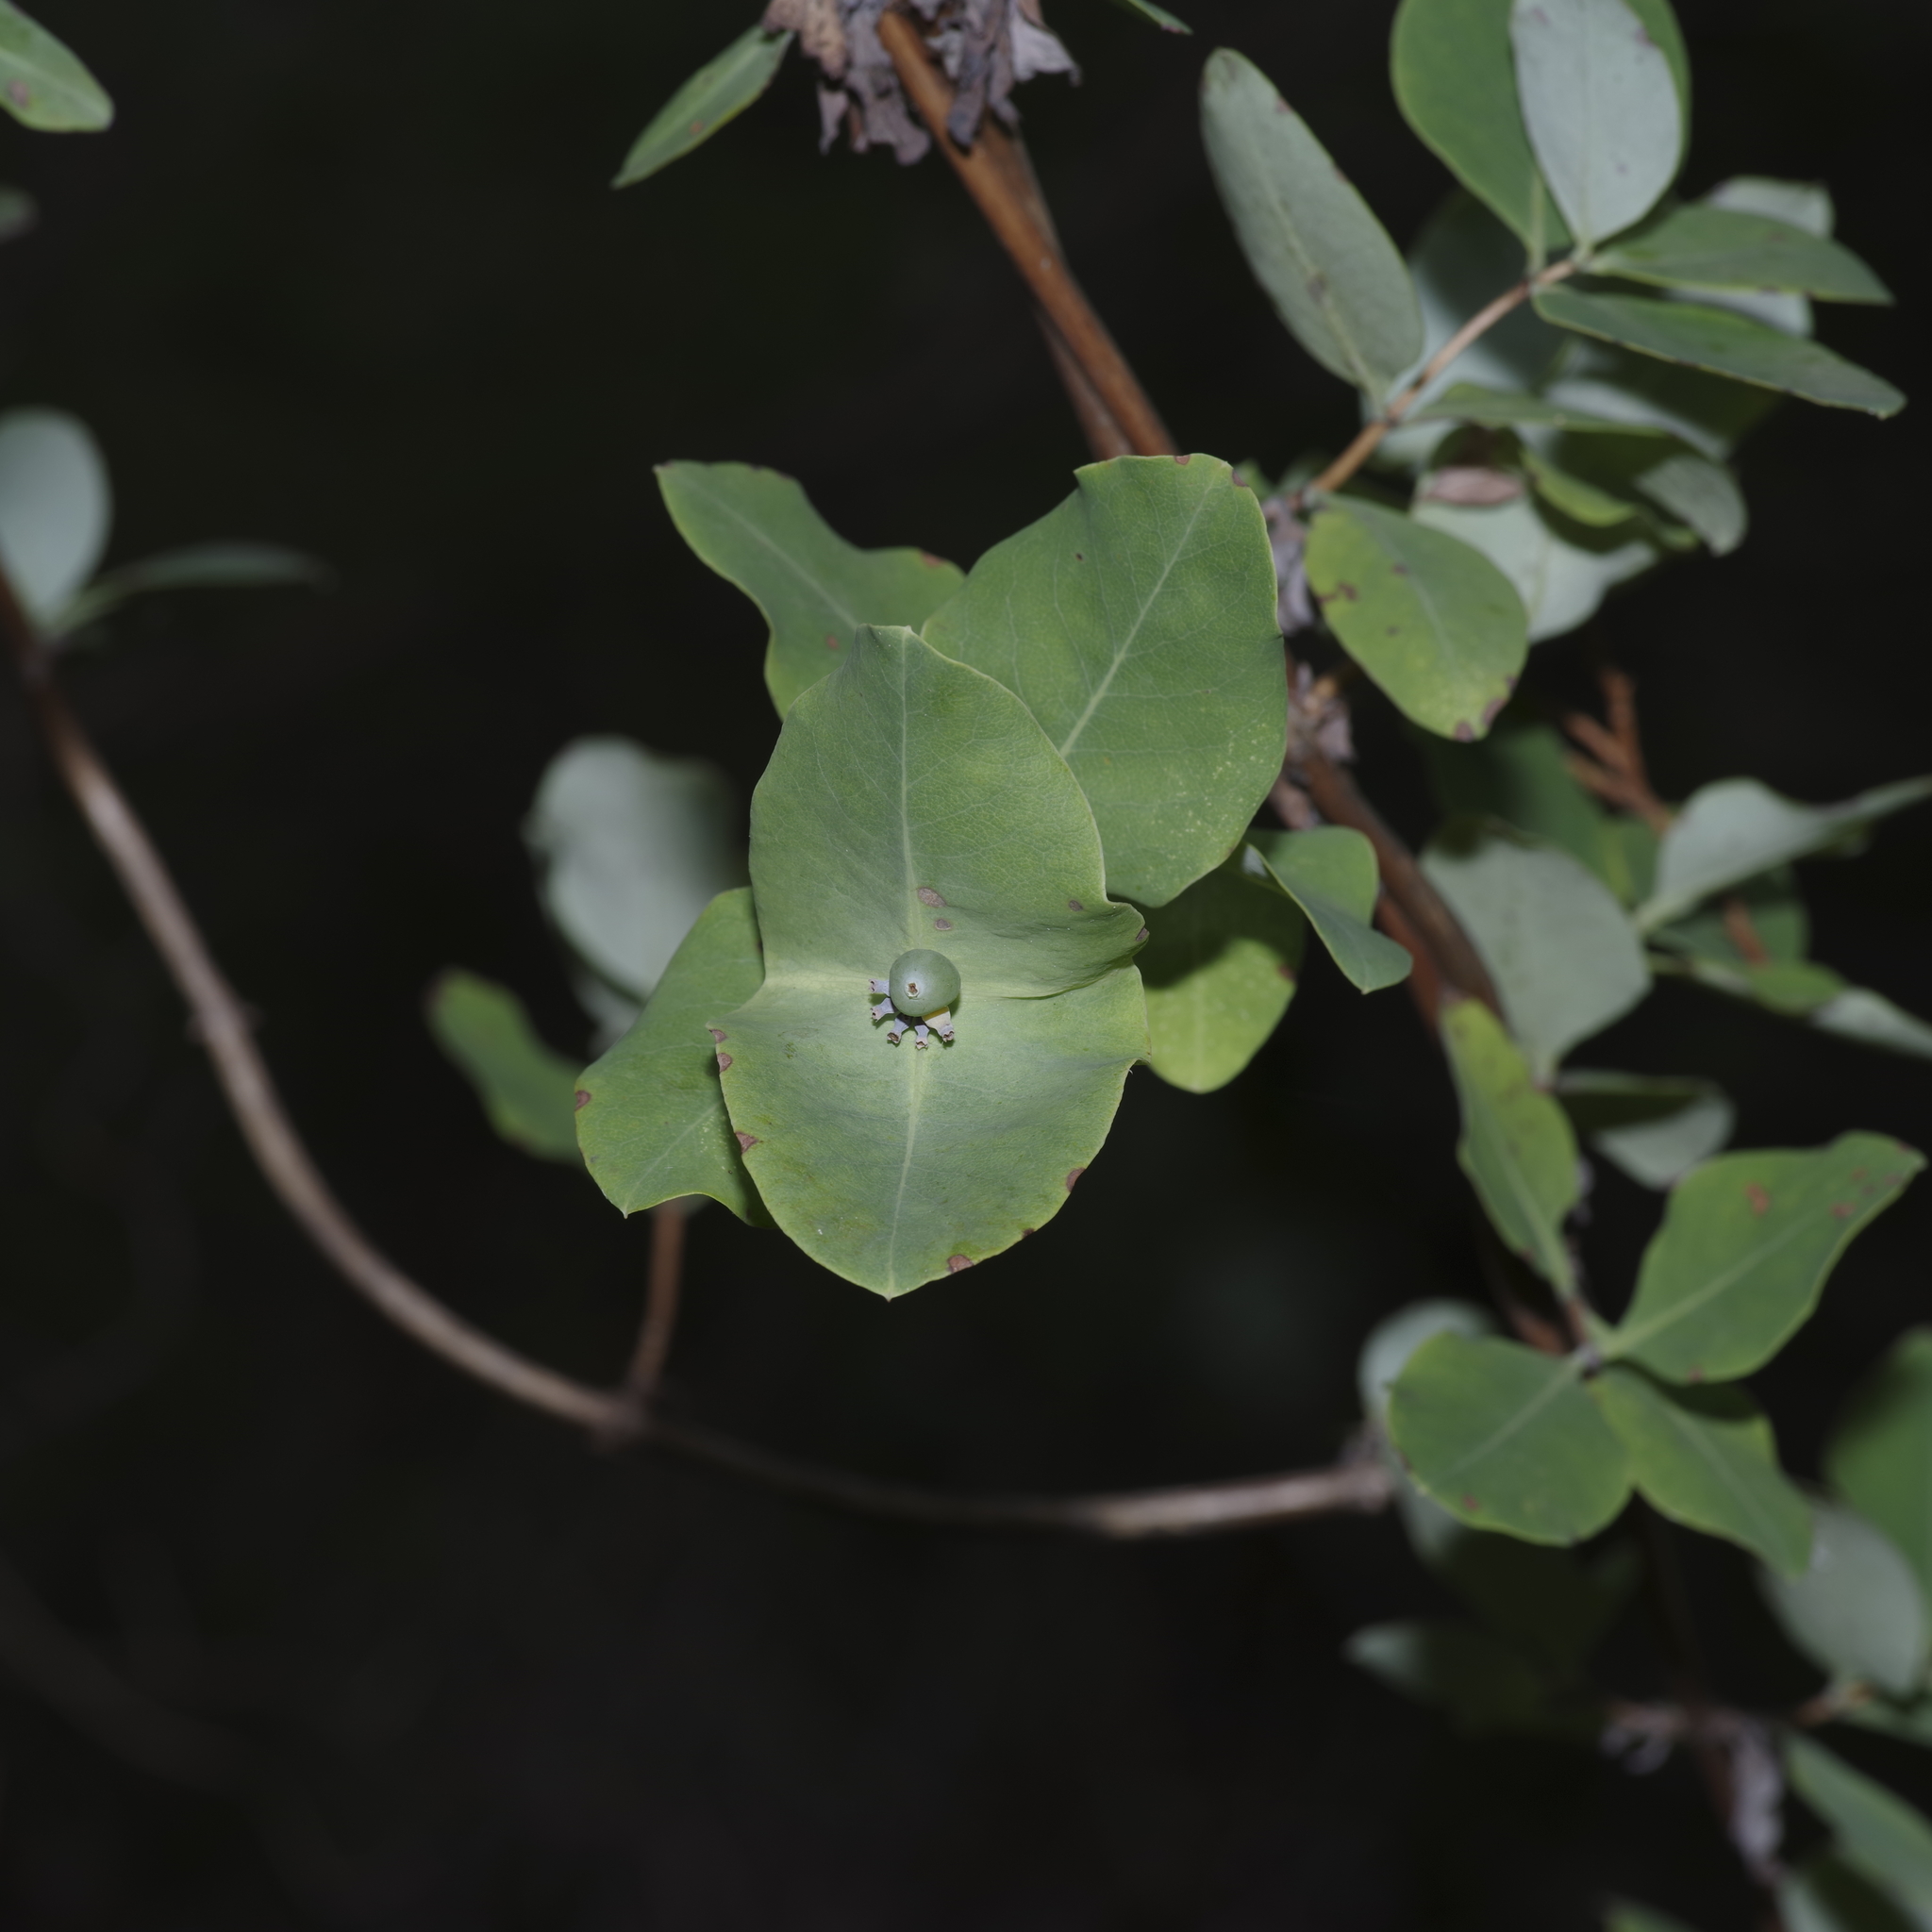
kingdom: Plantae
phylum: Tracheophyta
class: Magnoliopsida
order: Dipsacales
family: Caprifoliaceae
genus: Lonicera
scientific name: Lonicera albiflora
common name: White honeysuckle
